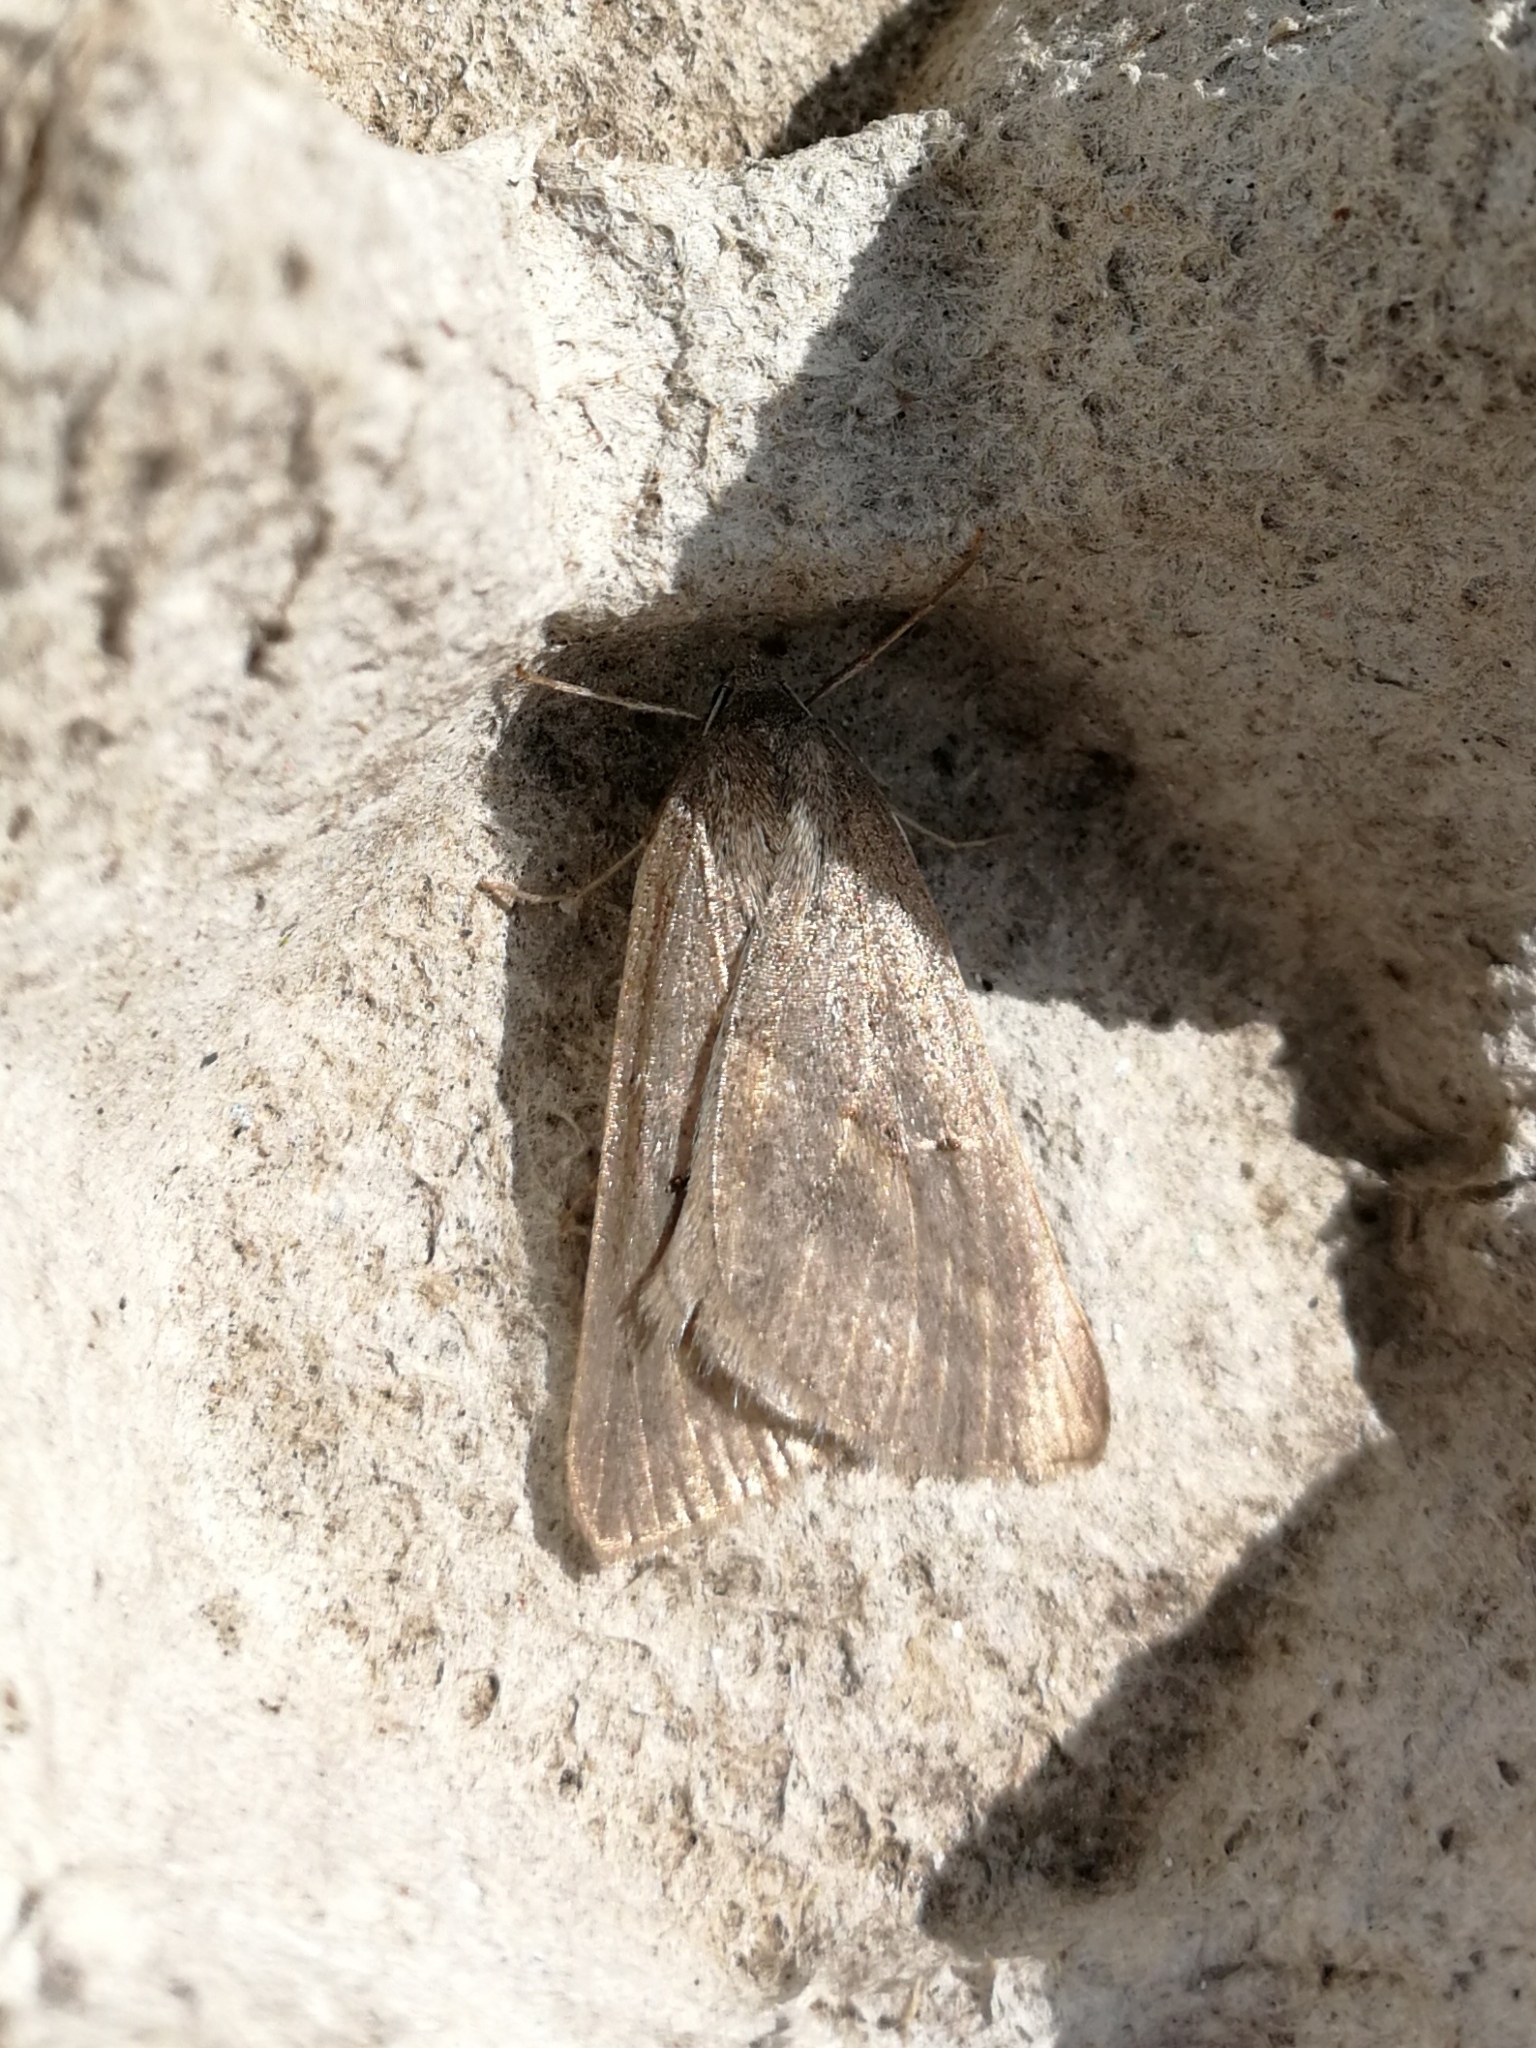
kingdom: Animalia
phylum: Arthropoda
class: Insecta
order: Lepidoptera
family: Geometridae
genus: Chemerina
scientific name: Chemerina caliginearia
